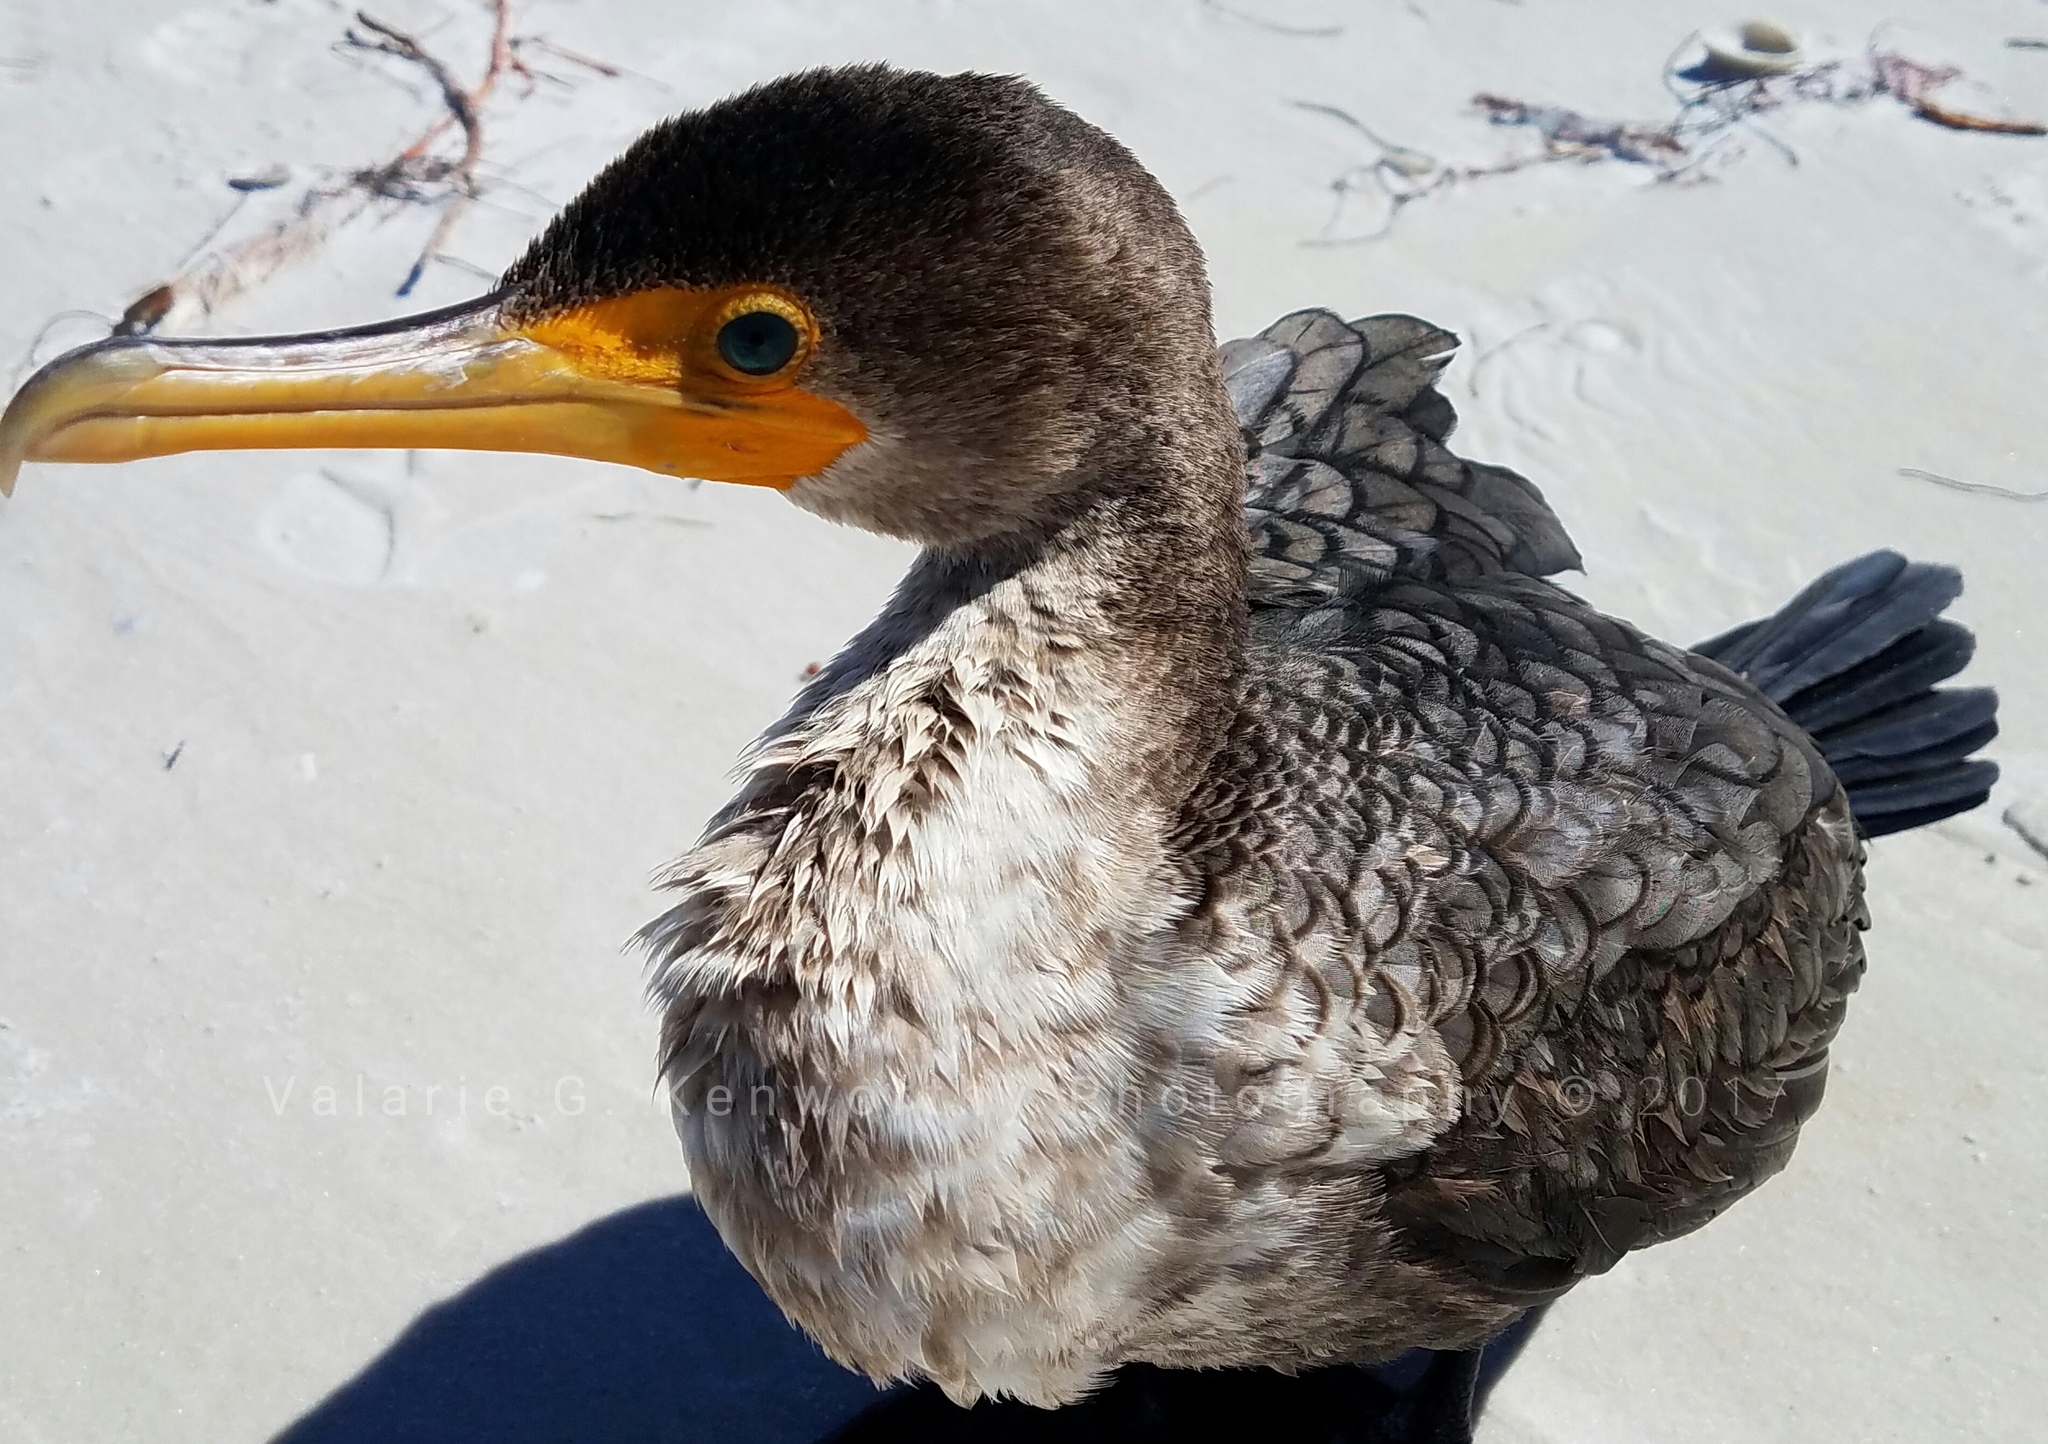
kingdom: Animalia
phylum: Chordata
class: Aves
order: Suliformes
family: Phalacrocoracidae
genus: Phalacrocorax
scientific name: Phalacrocorax auritus
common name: Double-crested cormorant
